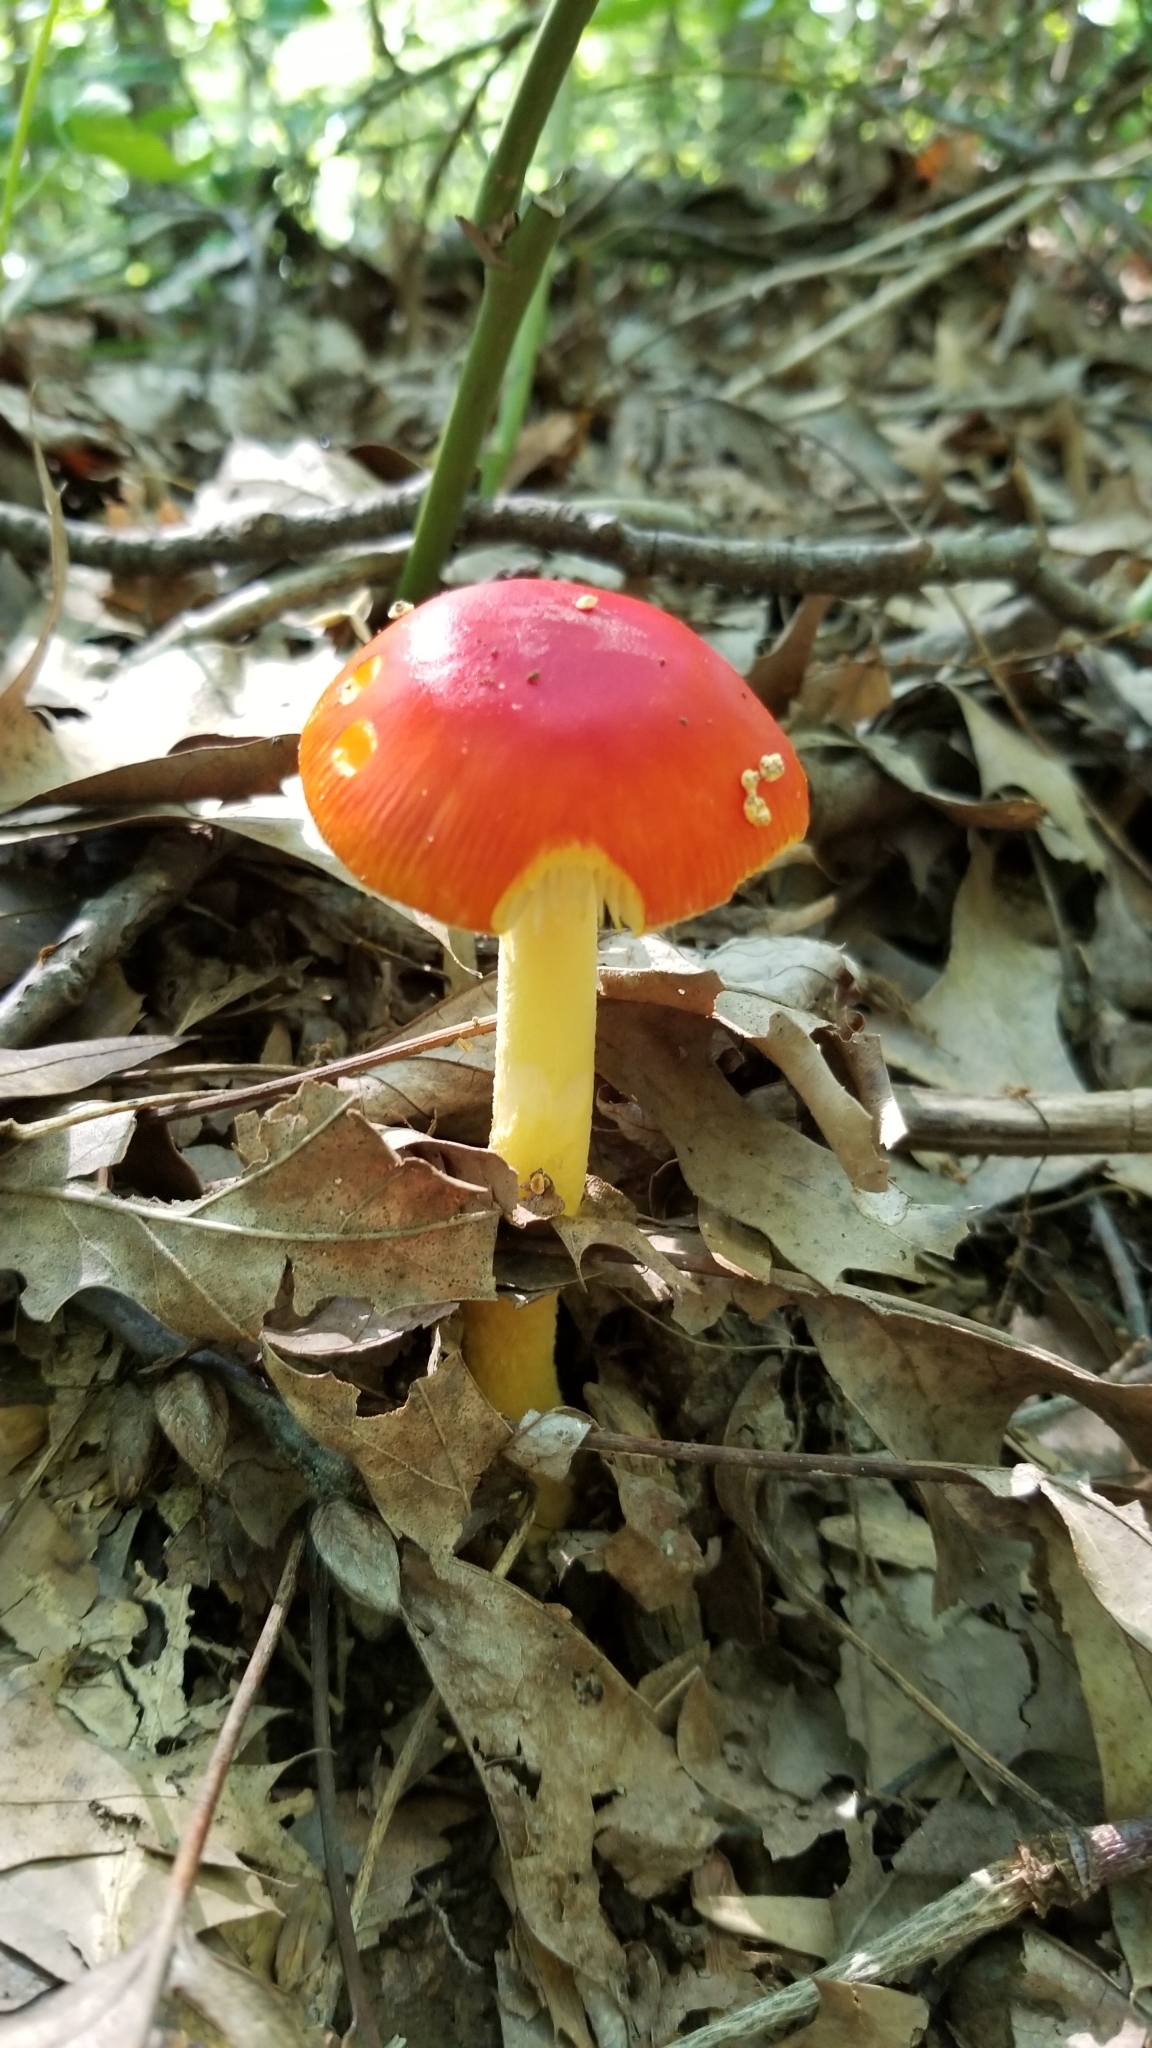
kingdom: Fungi
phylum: Basidiomycota
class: Agaricomycetes
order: Agaricales
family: Amanitaceae
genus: Amanita
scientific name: Amanita parcivolvata
